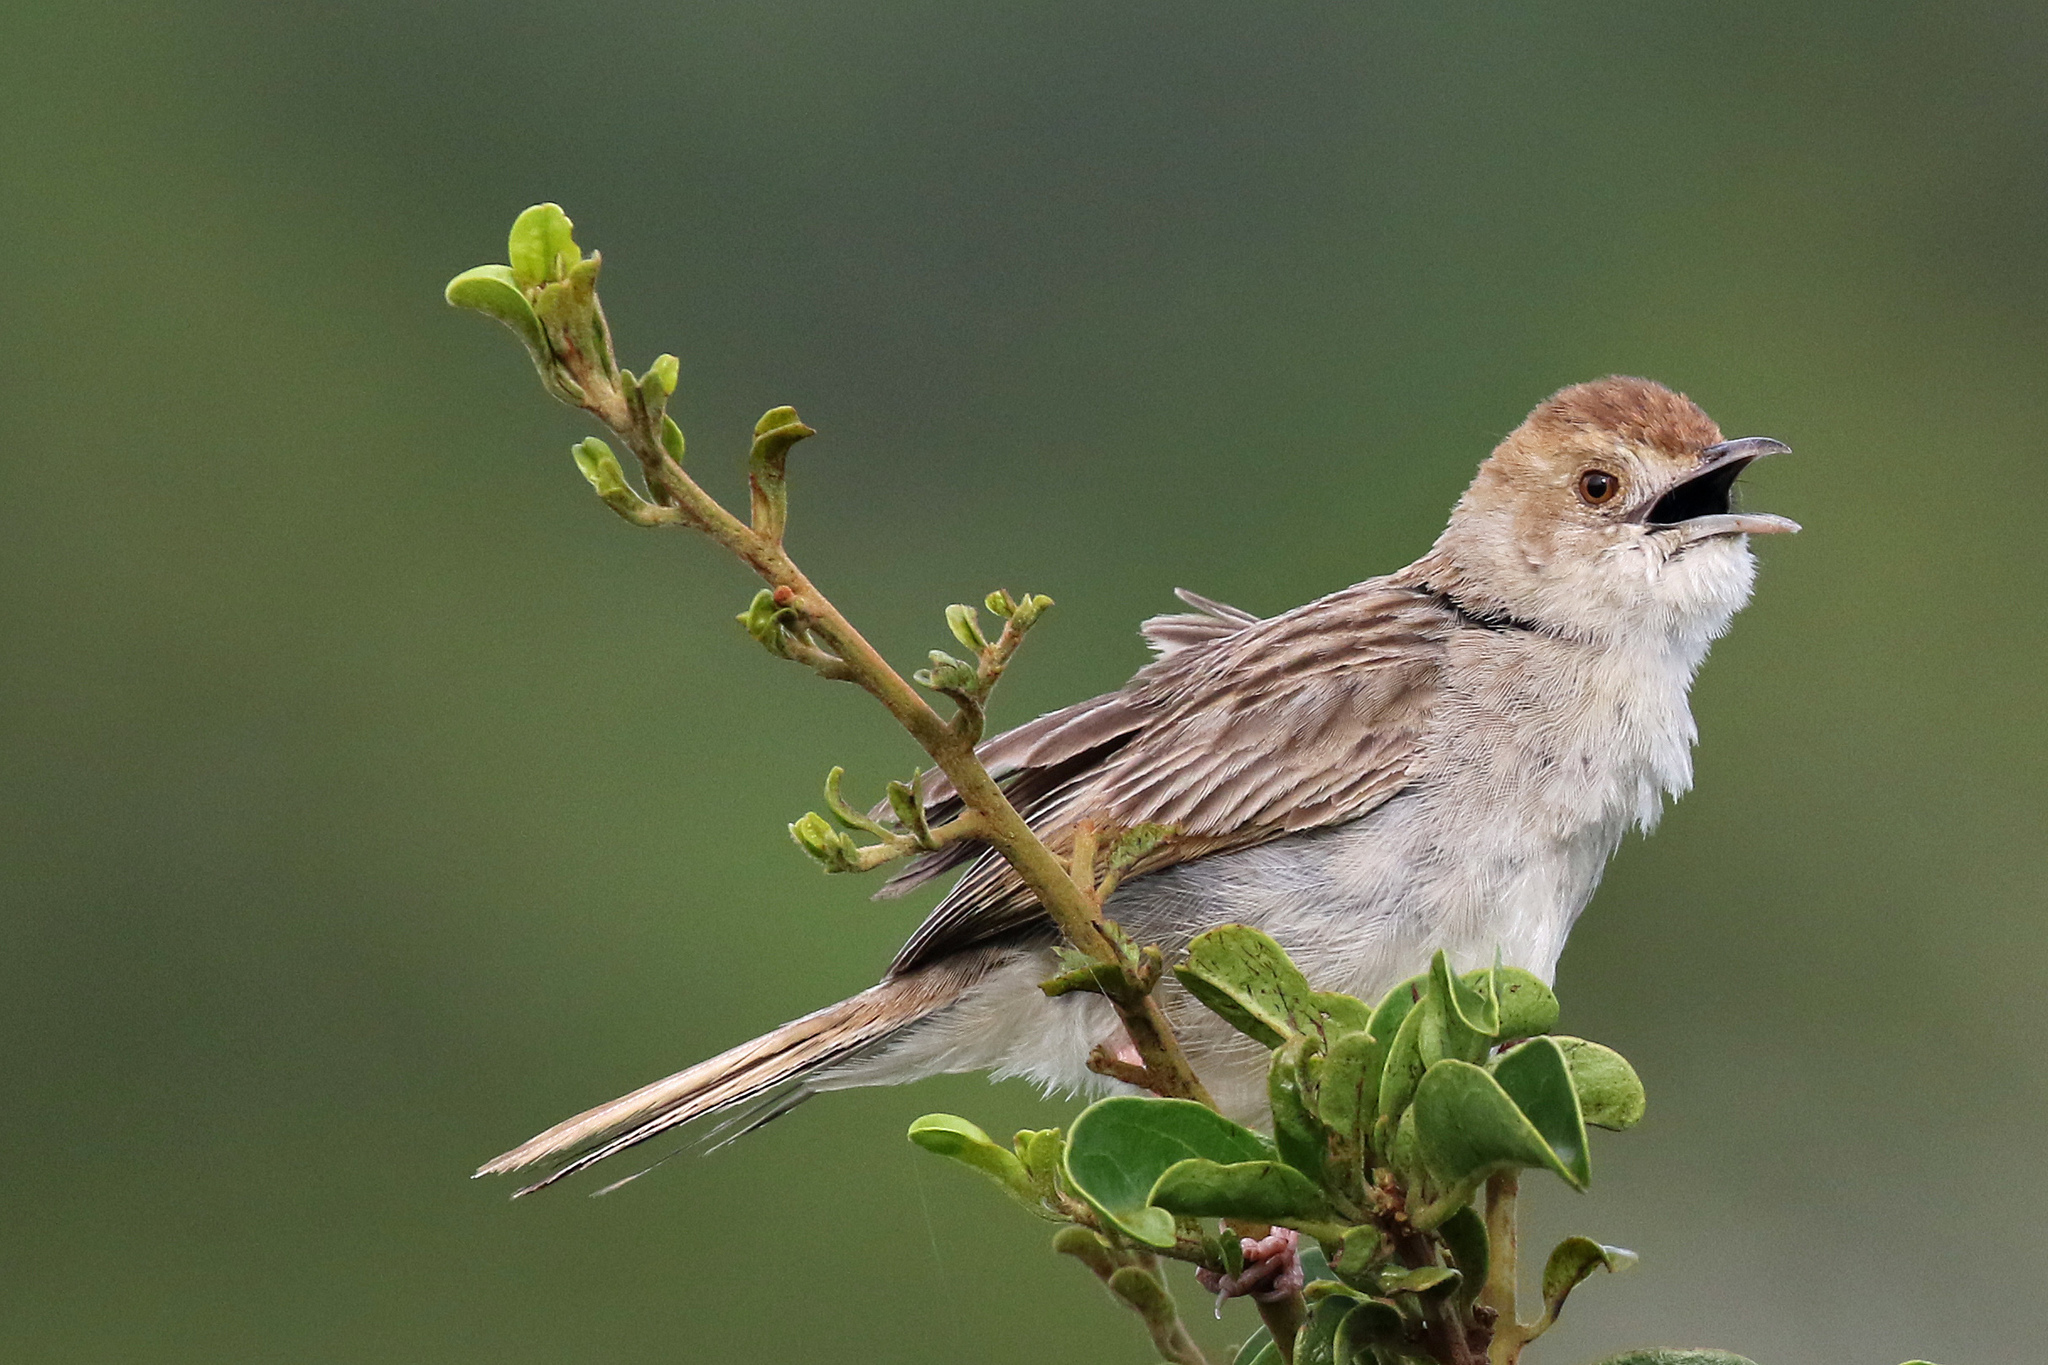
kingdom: Animalia
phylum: Chordata
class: Aves
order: Passeriformes
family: Cisticolidae
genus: Cisticola
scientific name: Cisticola chiniana
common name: Rattling cisticola
